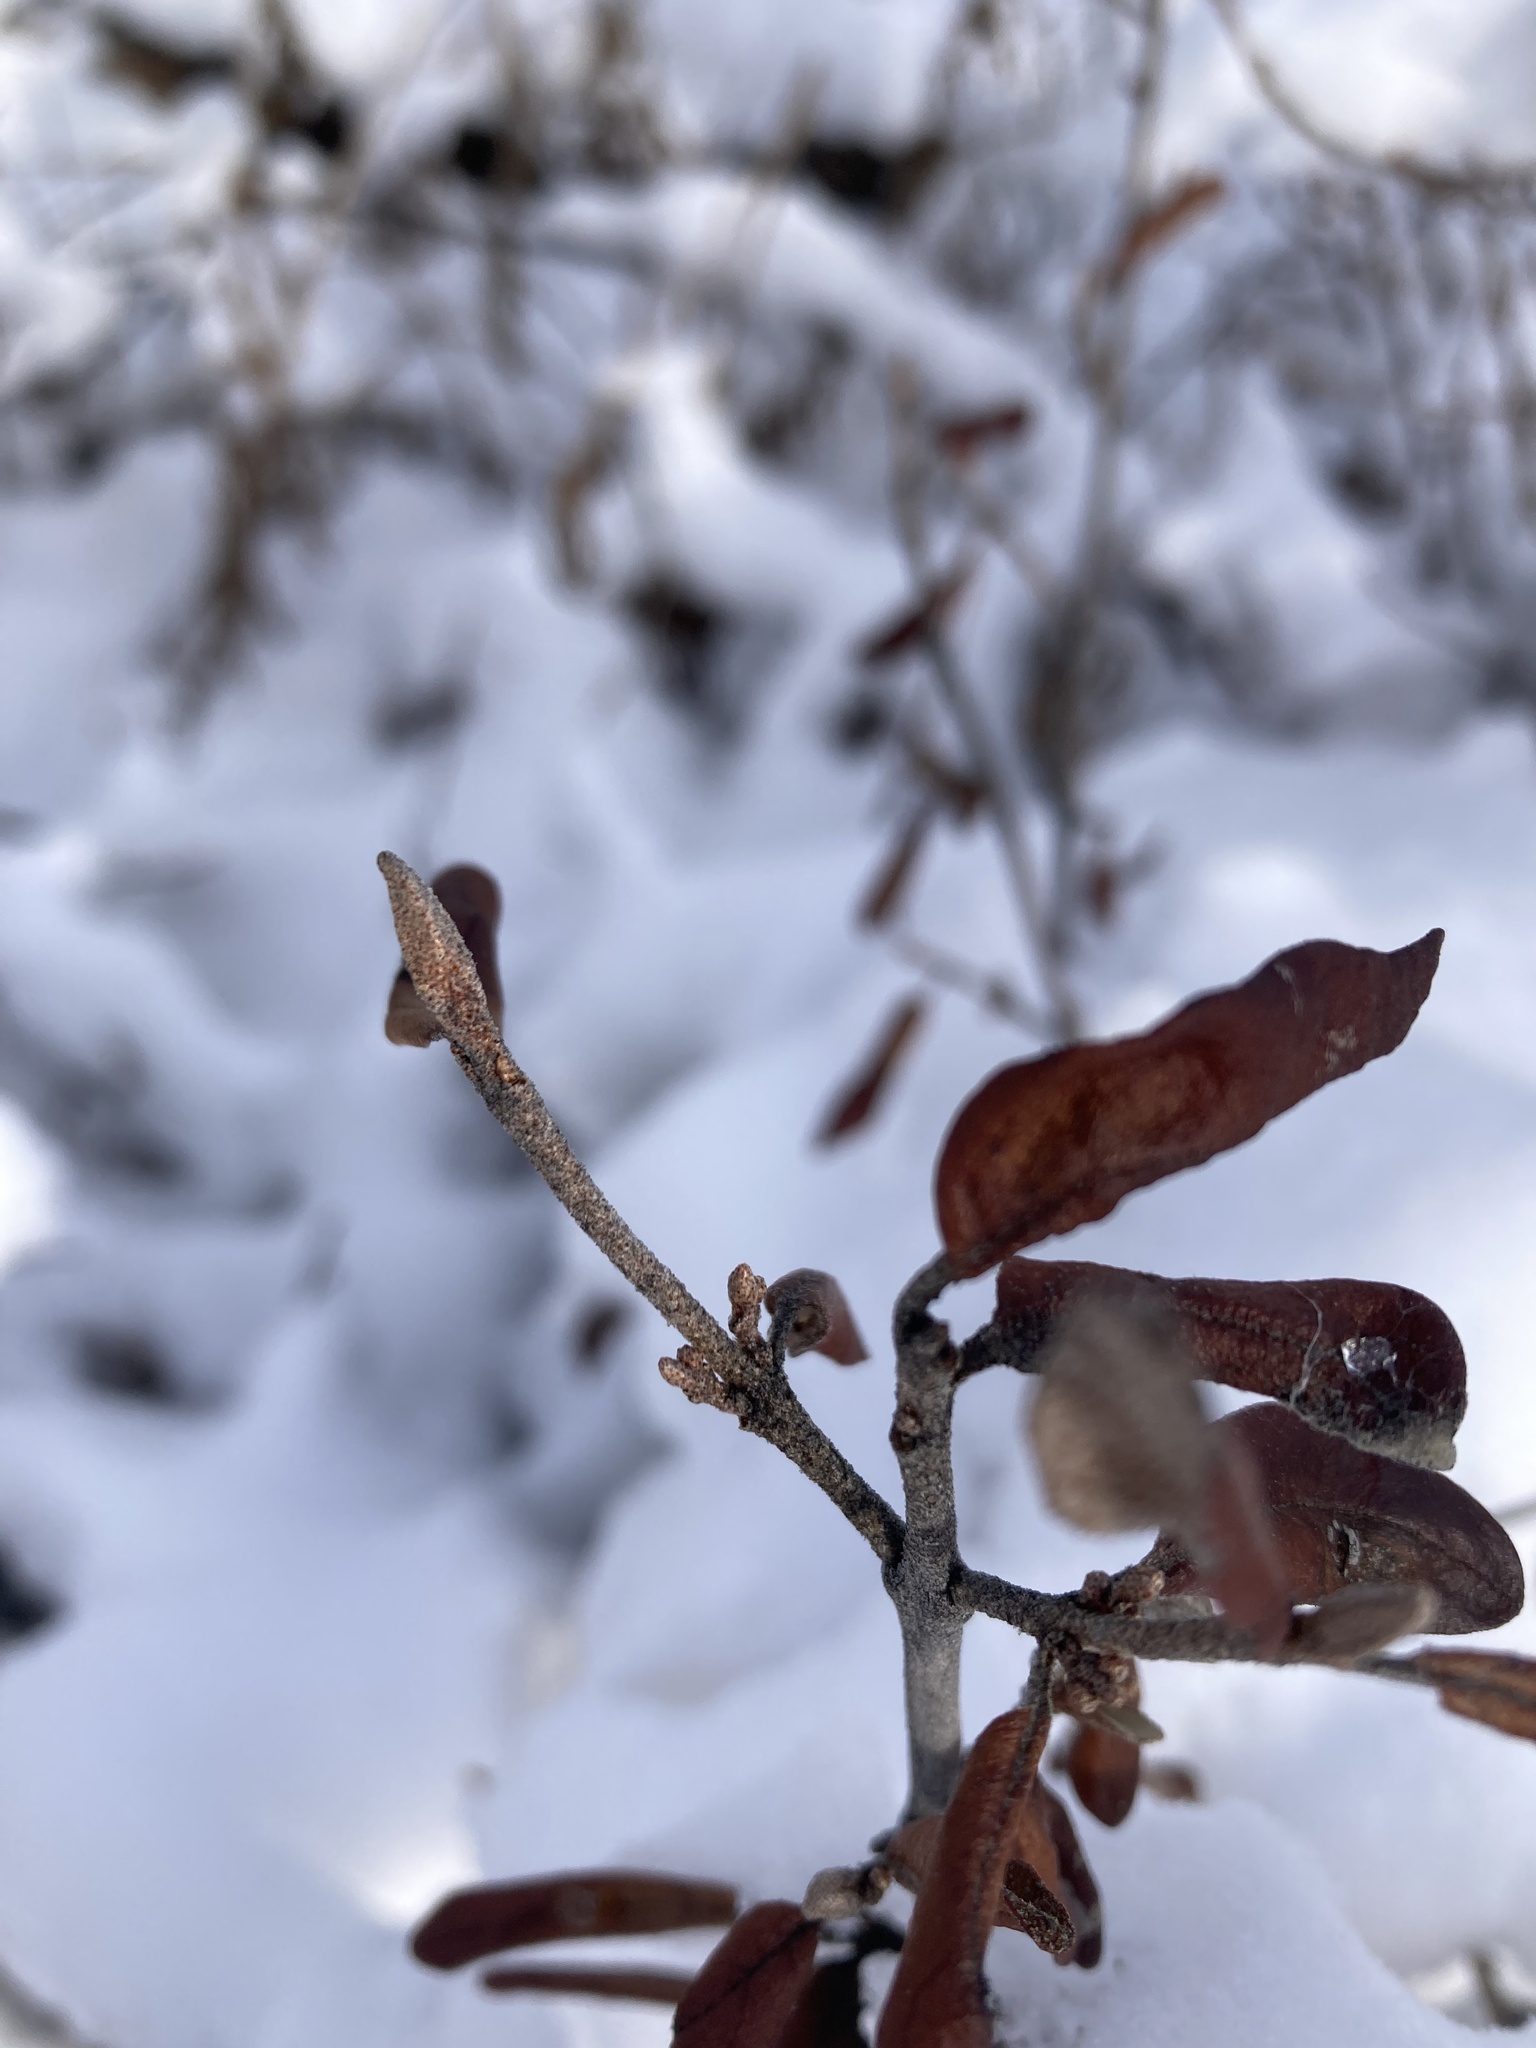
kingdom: Plantae
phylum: Tracheophyta
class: Magnoliopsida
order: Rosales
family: Elaeagnaceae
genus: Shepherdia
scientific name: Shepherdia canadensis
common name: Soapberry
